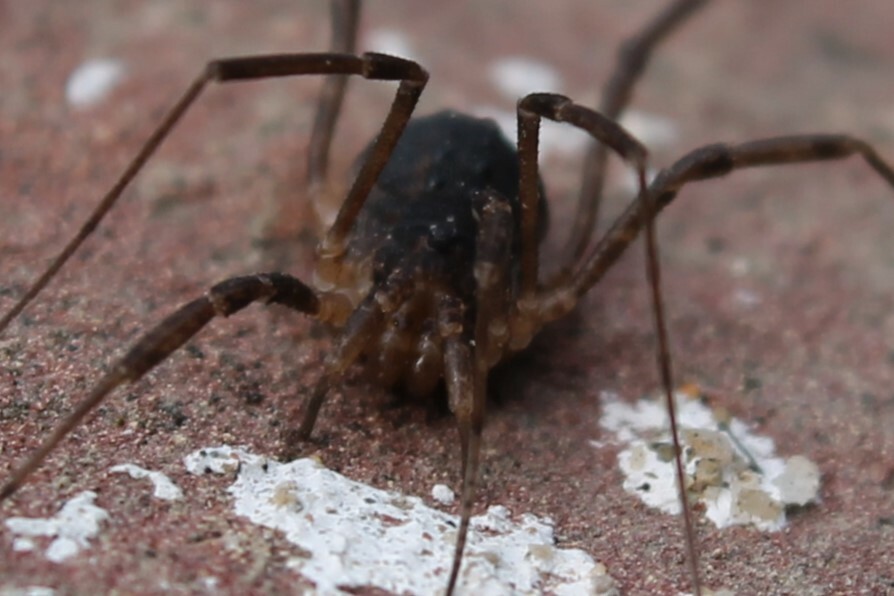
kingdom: Animalia
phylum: Arthropoda
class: Arachnida
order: Opiliones
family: Protolophidae
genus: Protolophus
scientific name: Protolophus singularis
